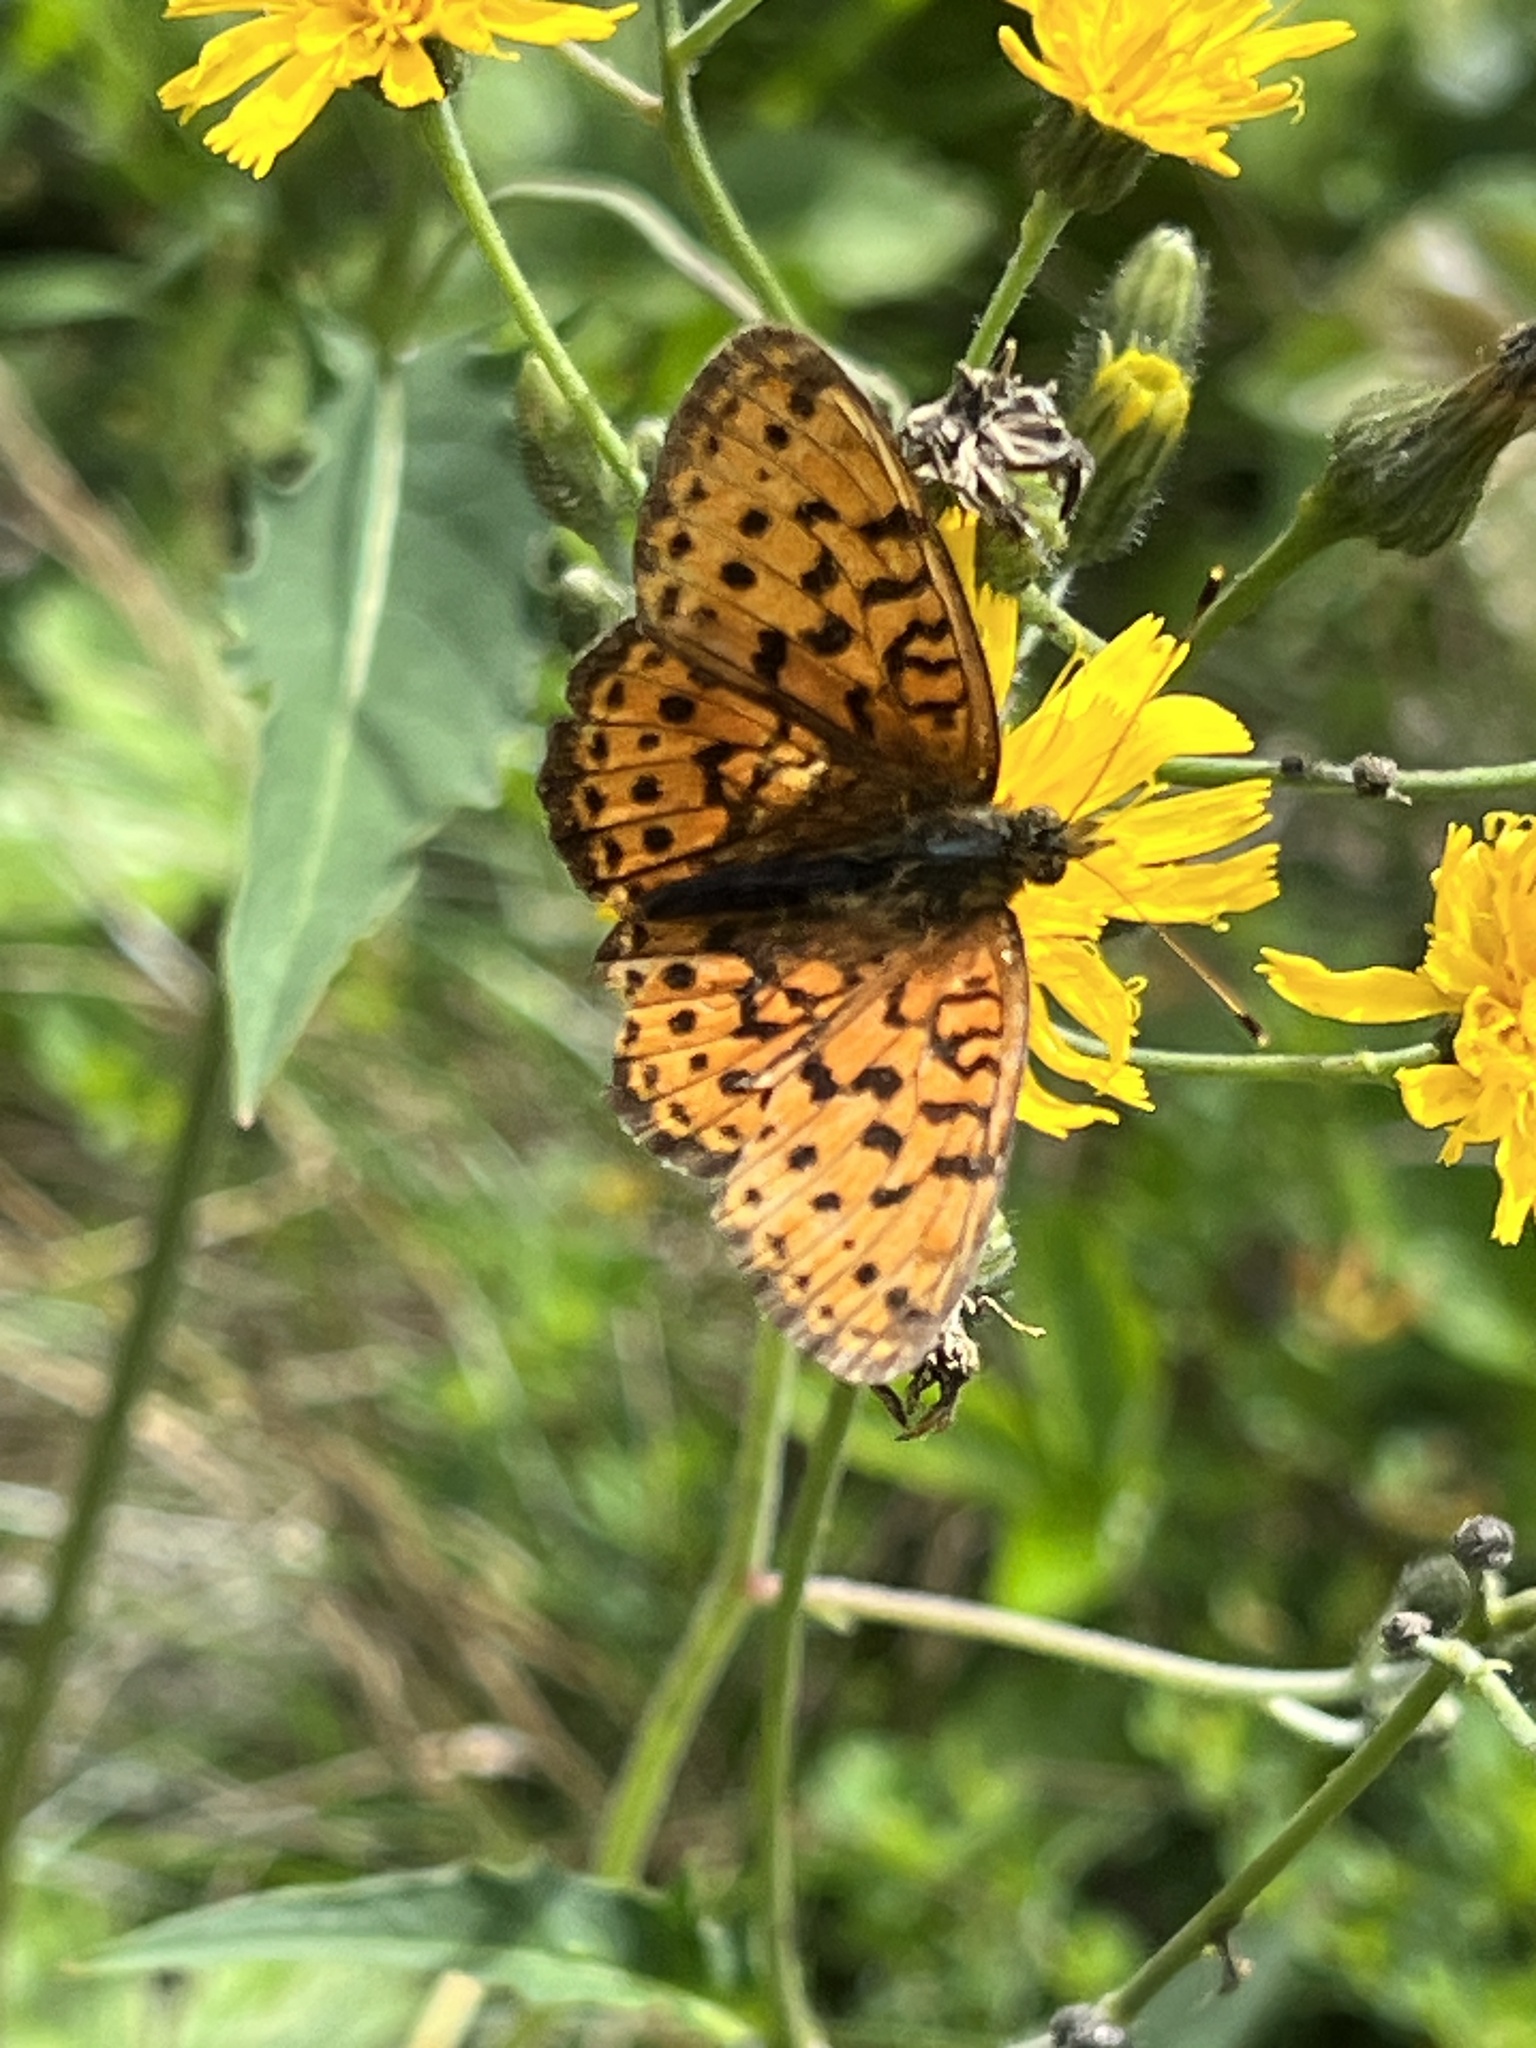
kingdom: Animalia
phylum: Arthropoda
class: Insecta
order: Lepidoptera
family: Nymphalidae
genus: Brenthis
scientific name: Brenthis ino
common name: Lesser marbled fritillary
